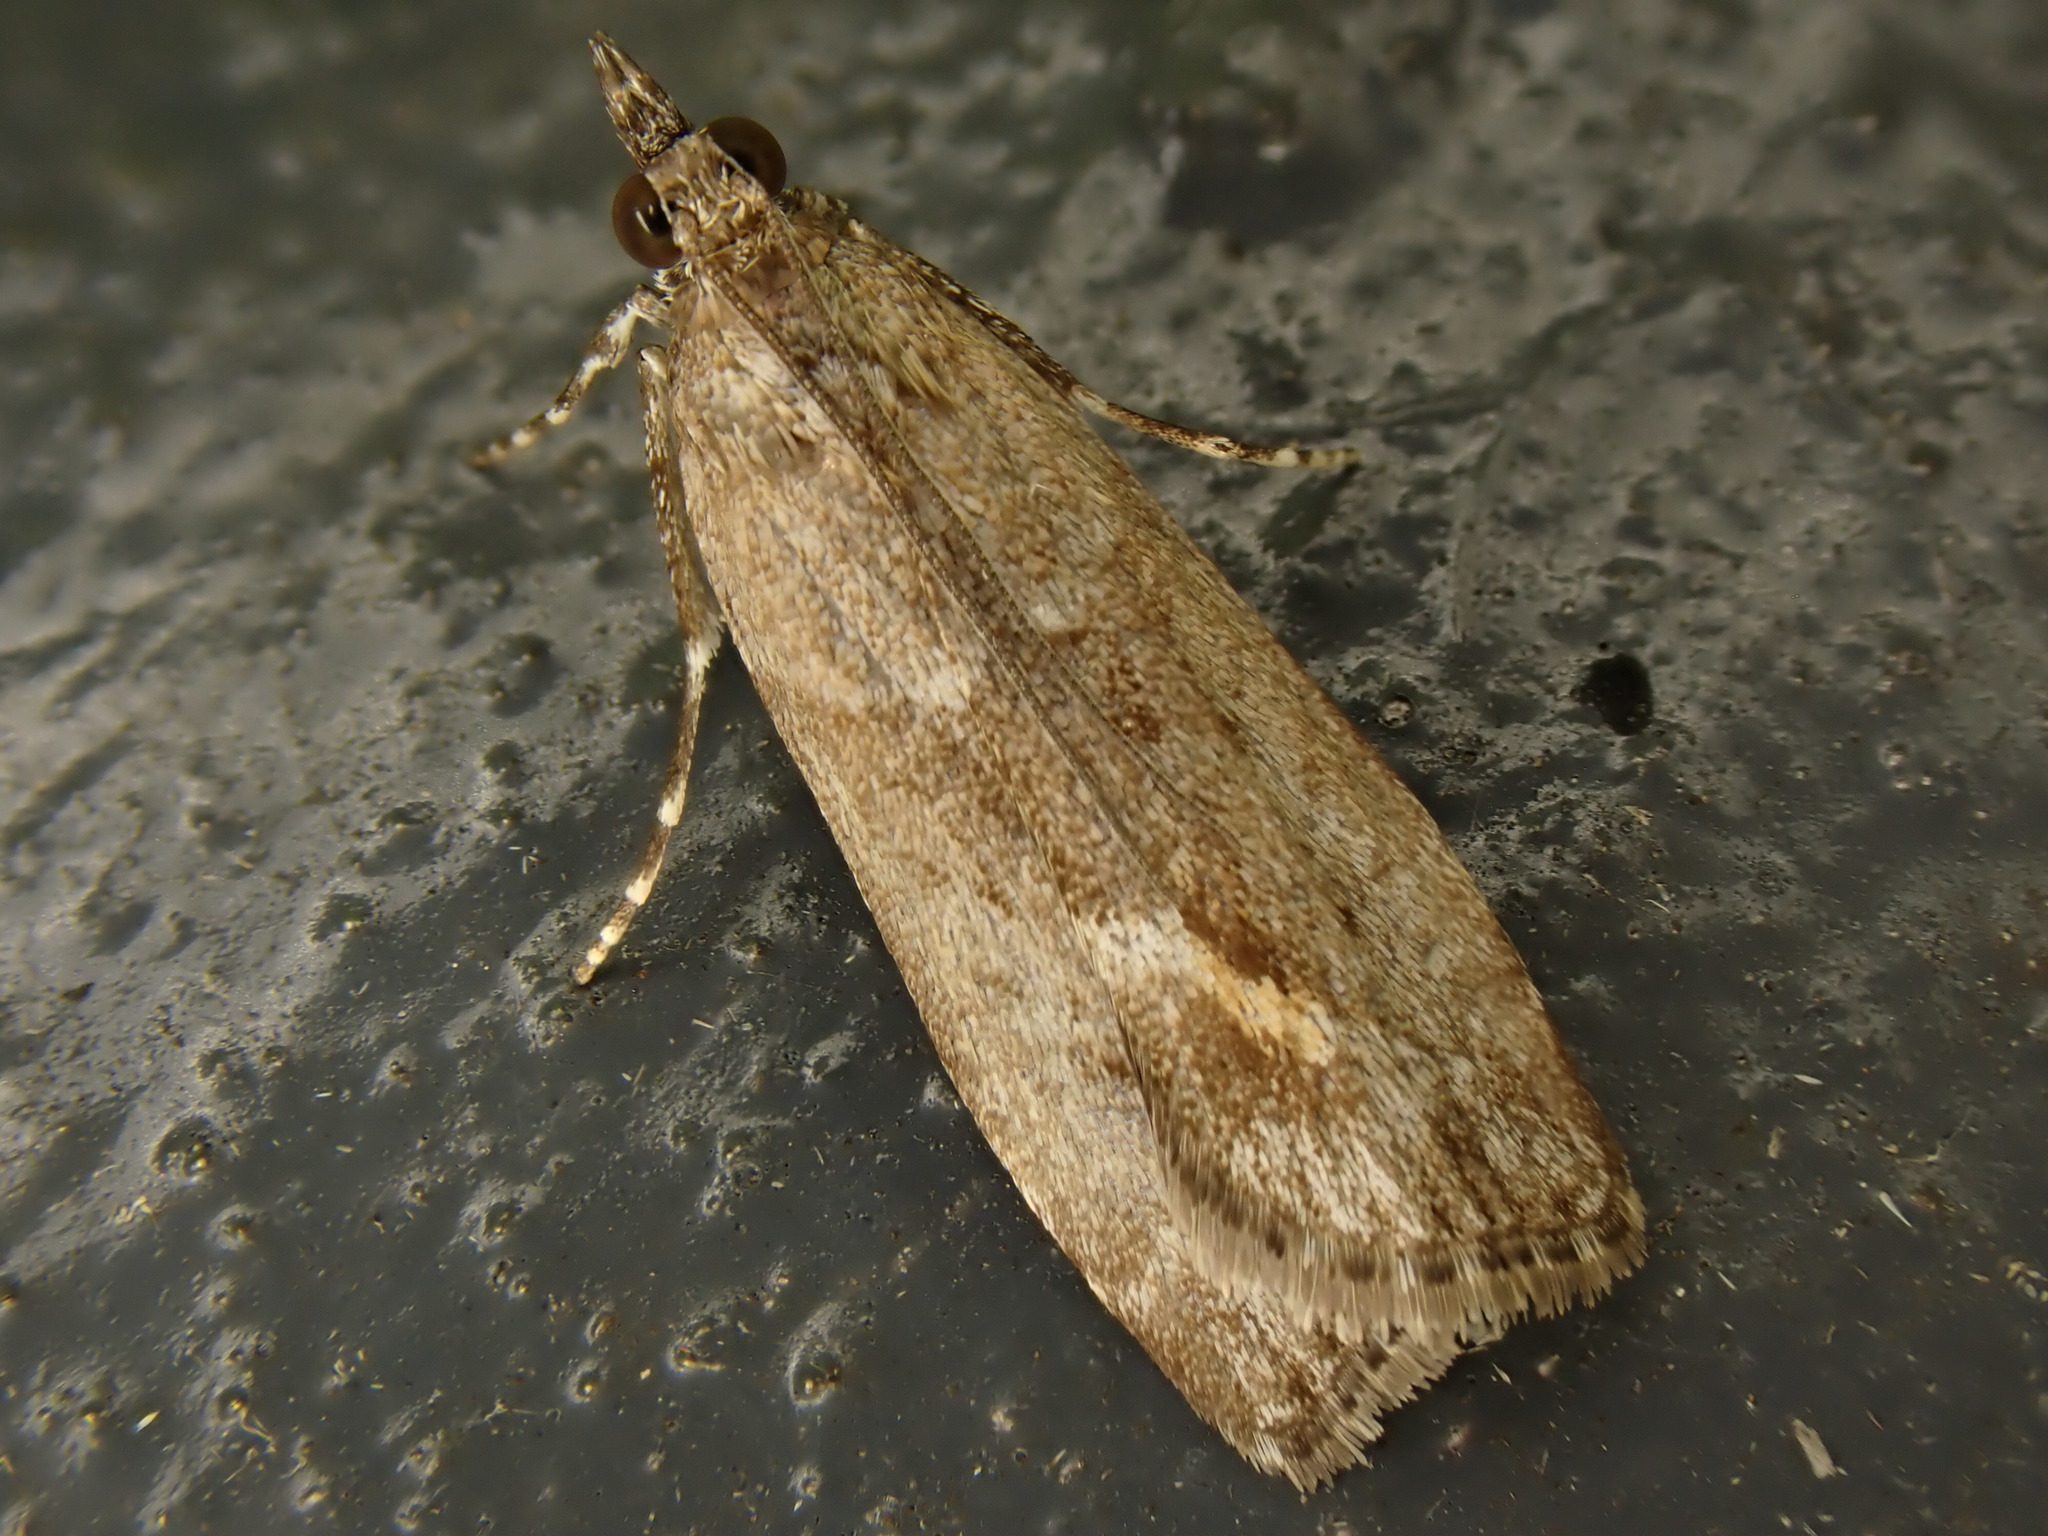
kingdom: Animalia
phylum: Arthropoda
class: Insecta
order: Lepidoptera
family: Crambidae
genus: Eudonia
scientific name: Eudonia submarginalis
